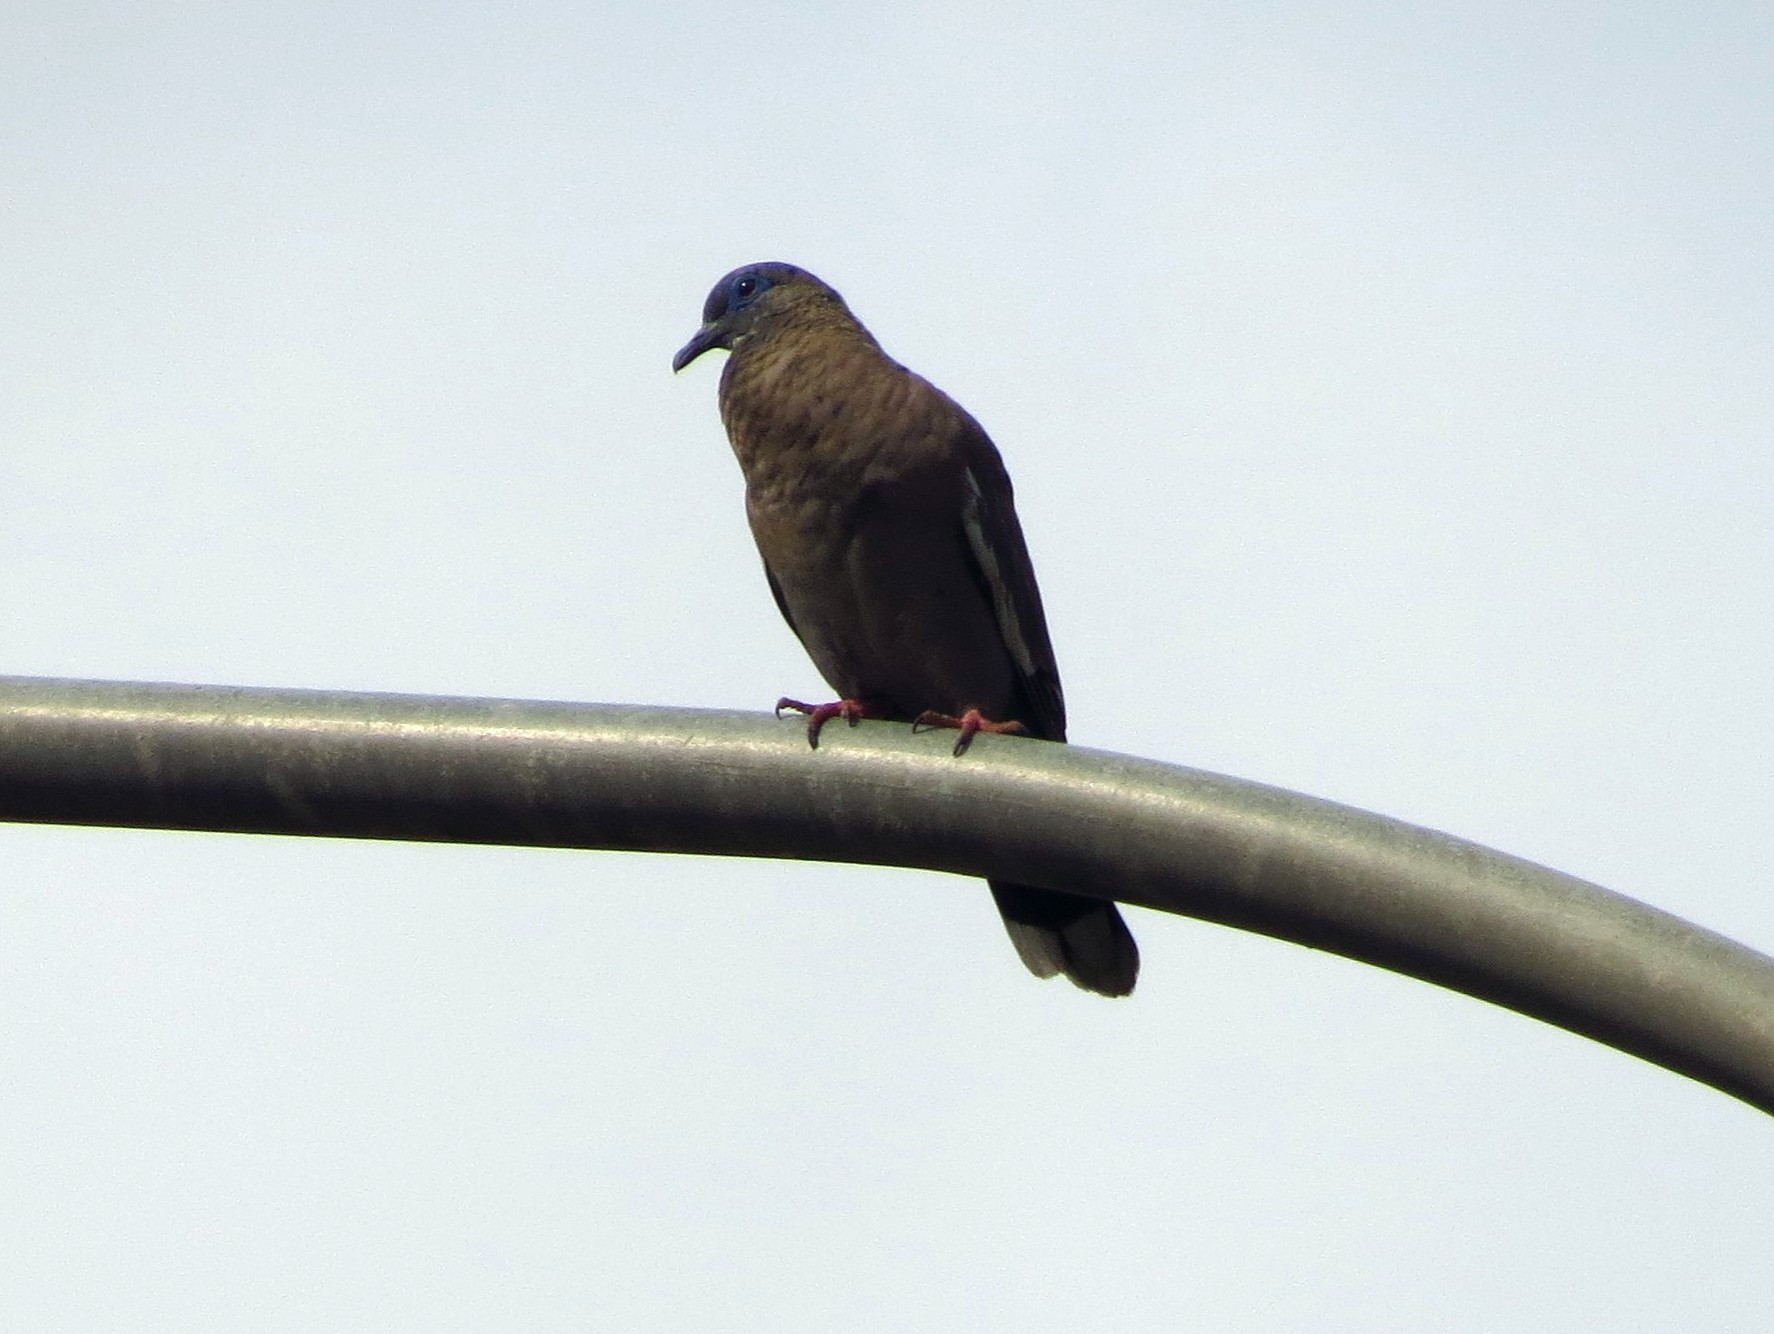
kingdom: Animalia
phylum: Chordata
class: Aves
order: Columbiformes
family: Columbidae
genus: Zenaida
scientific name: Zenaida meloda
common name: West peruvian dove
